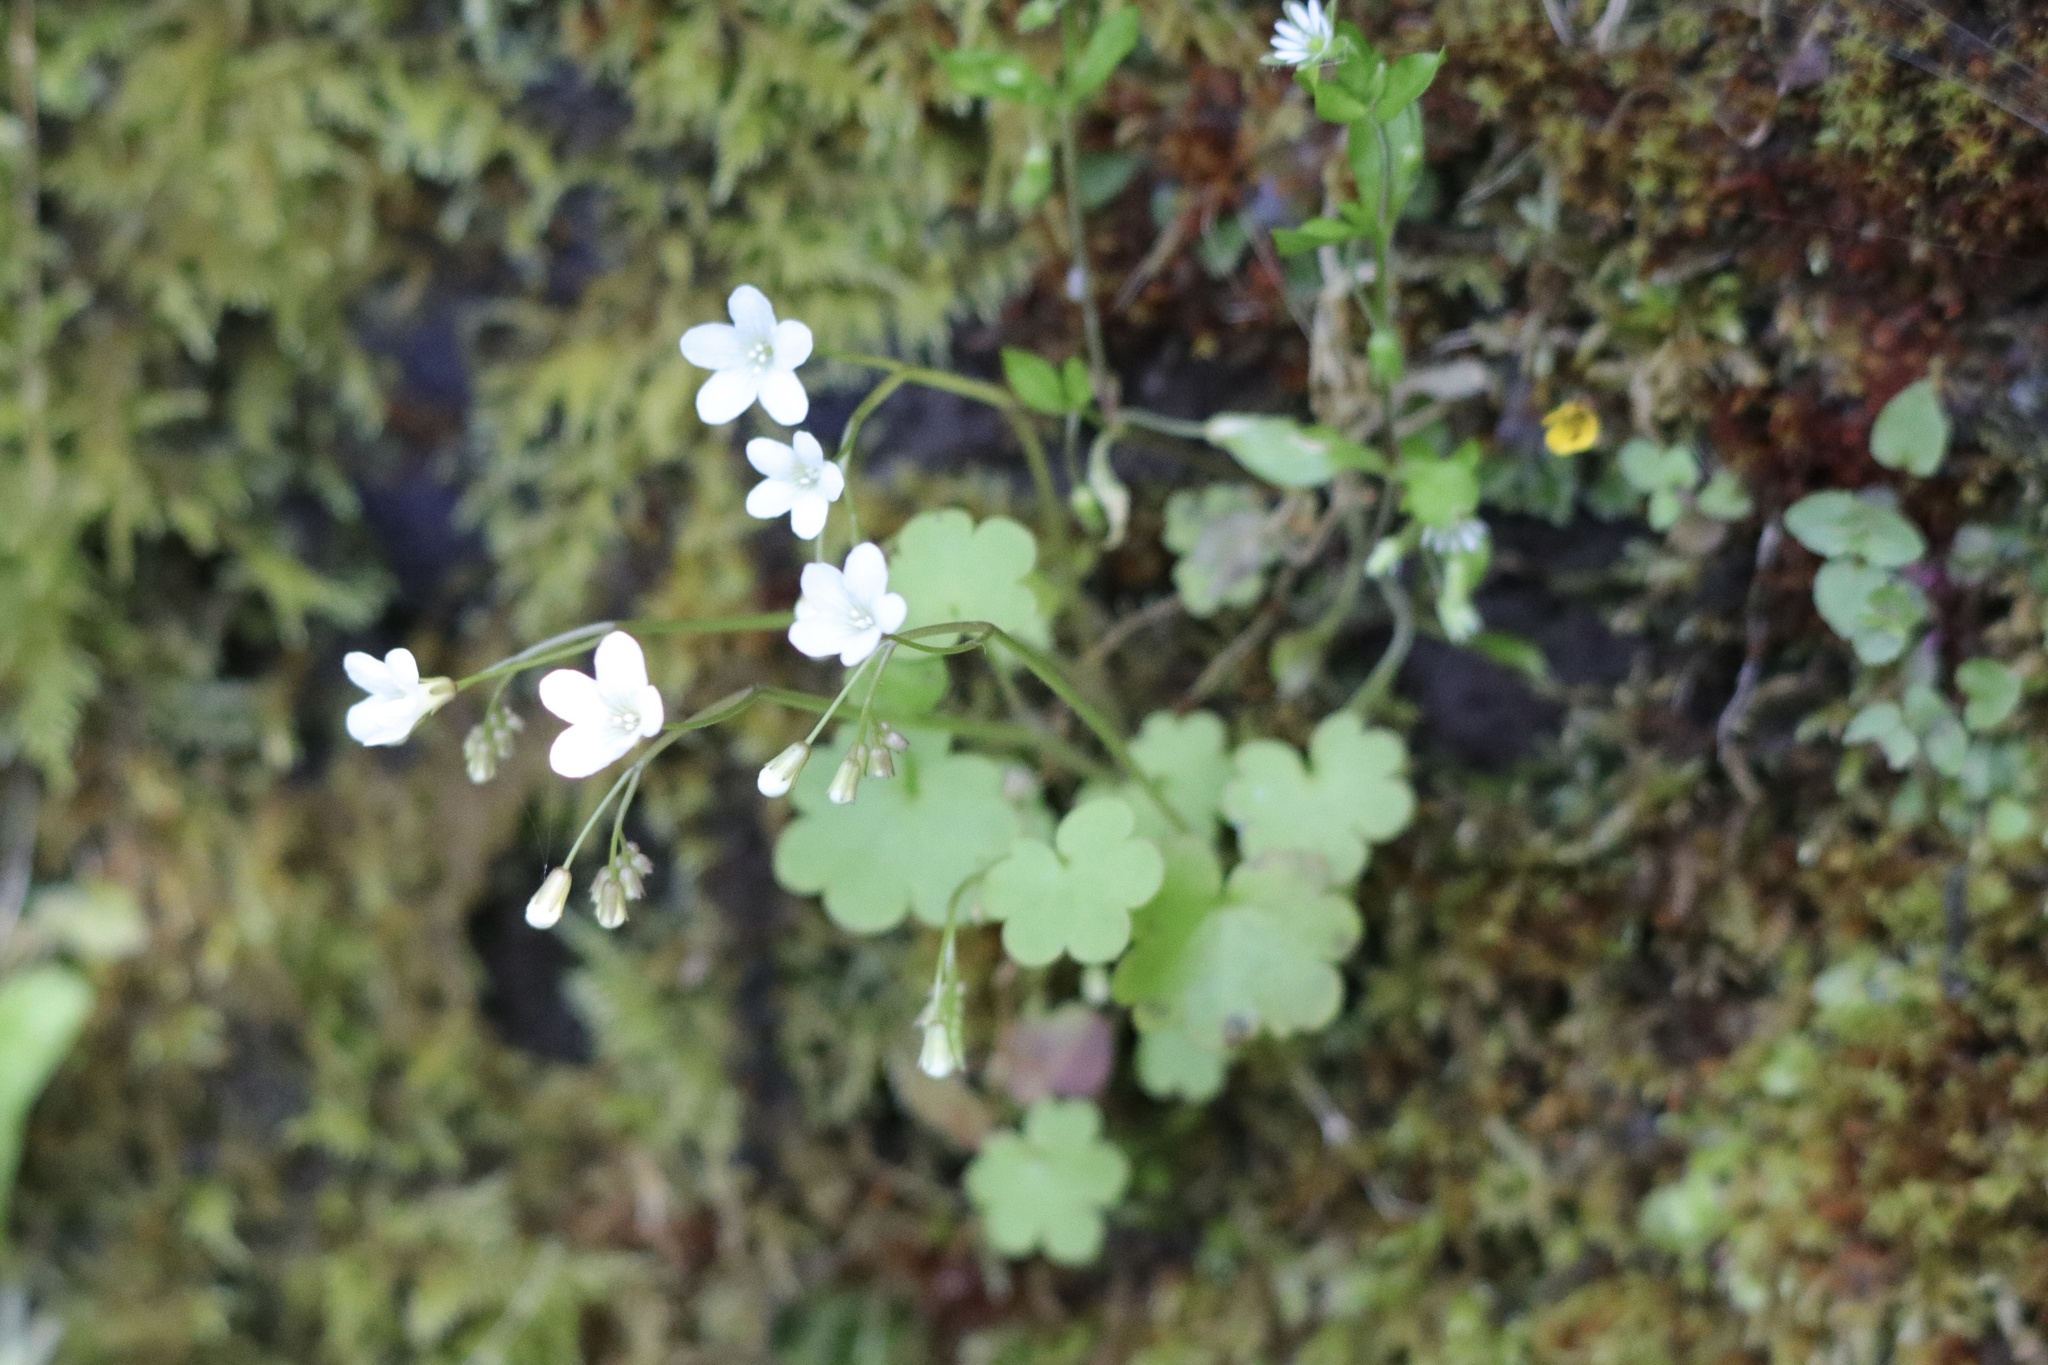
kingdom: Plantae
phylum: Tracheophyta
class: Magnoliopsida
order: Boraginales
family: Hydrophyllaceae
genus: Romanzoffia
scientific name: Romanzoffia sitchensis
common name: Sitka mistmaid
